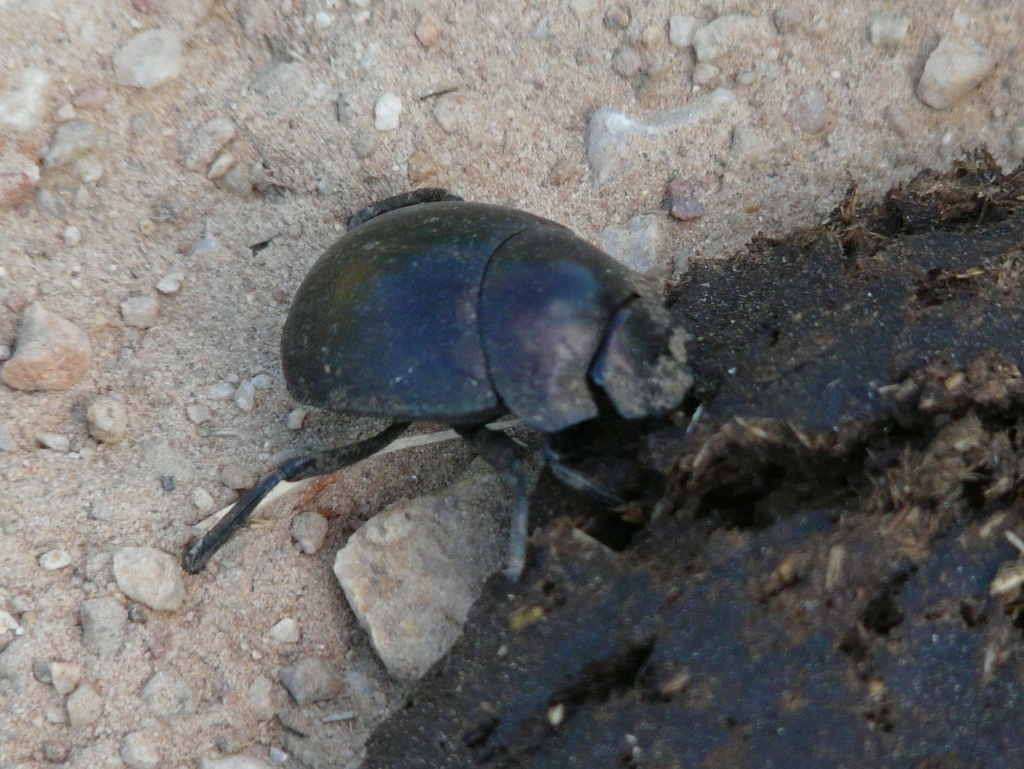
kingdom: Animalia
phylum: Arthropoda
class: Insecta
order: Coleoptera
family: Scarabaeidae
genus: Chalconotus
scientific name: Chalconotus convexus
